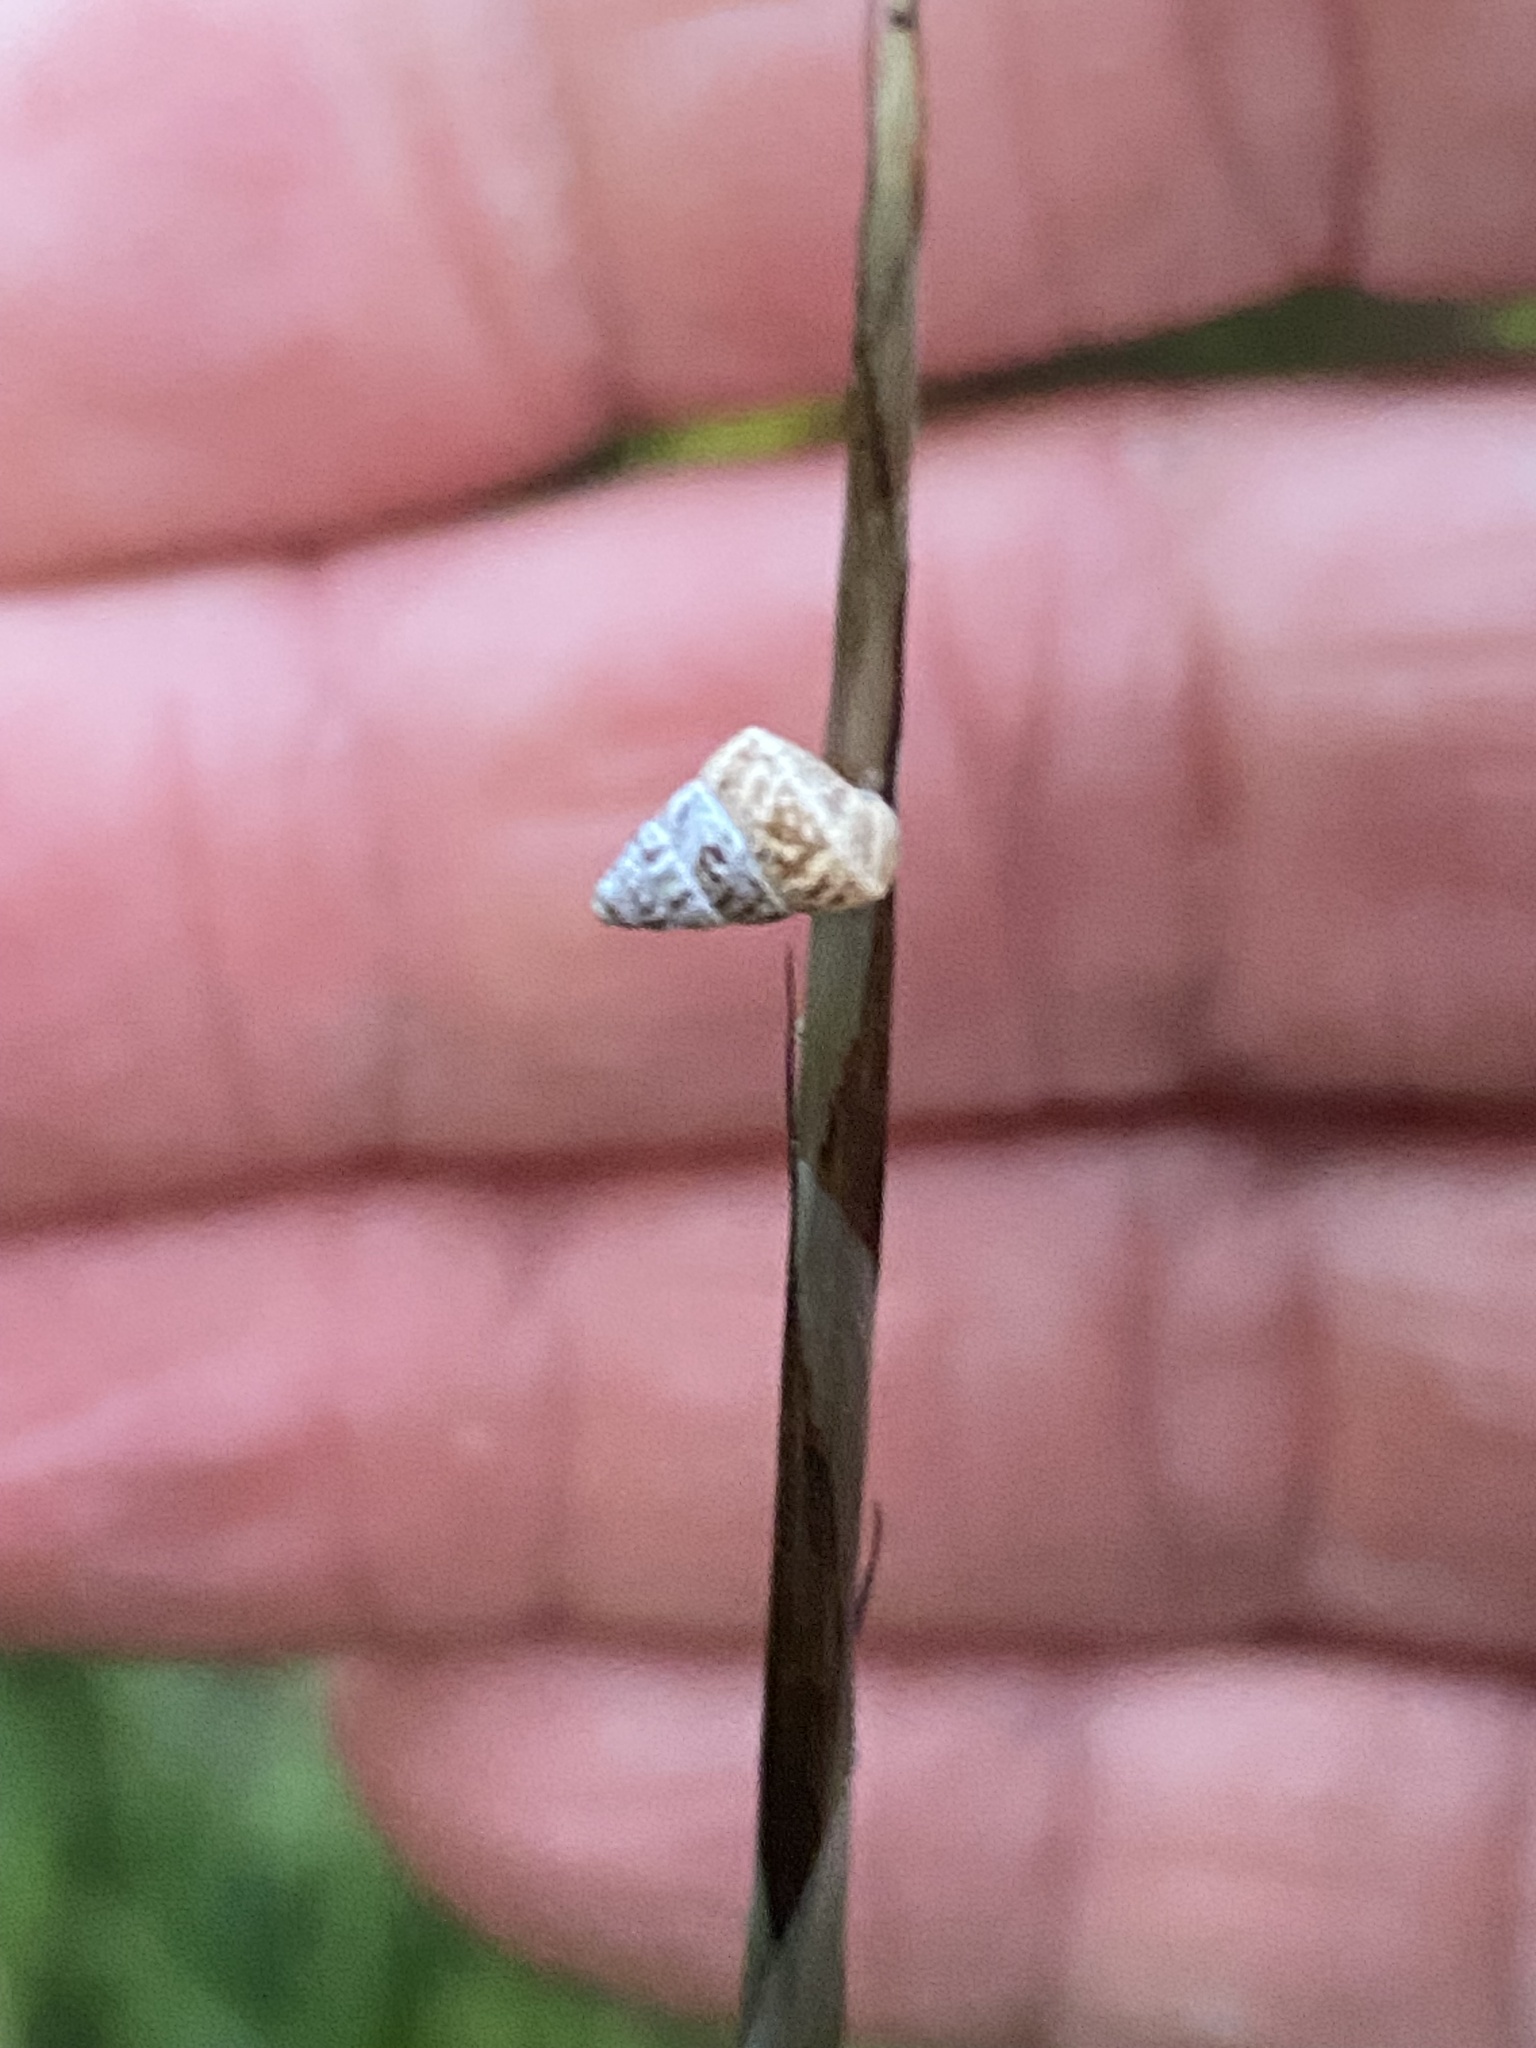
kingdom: Animalia
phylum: Mollusca
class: Gastropoda
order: Stylommatophora
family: Geomitridae
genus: Cochlicella
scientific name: Cochlicella barbara
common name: Potbellied helicellid
